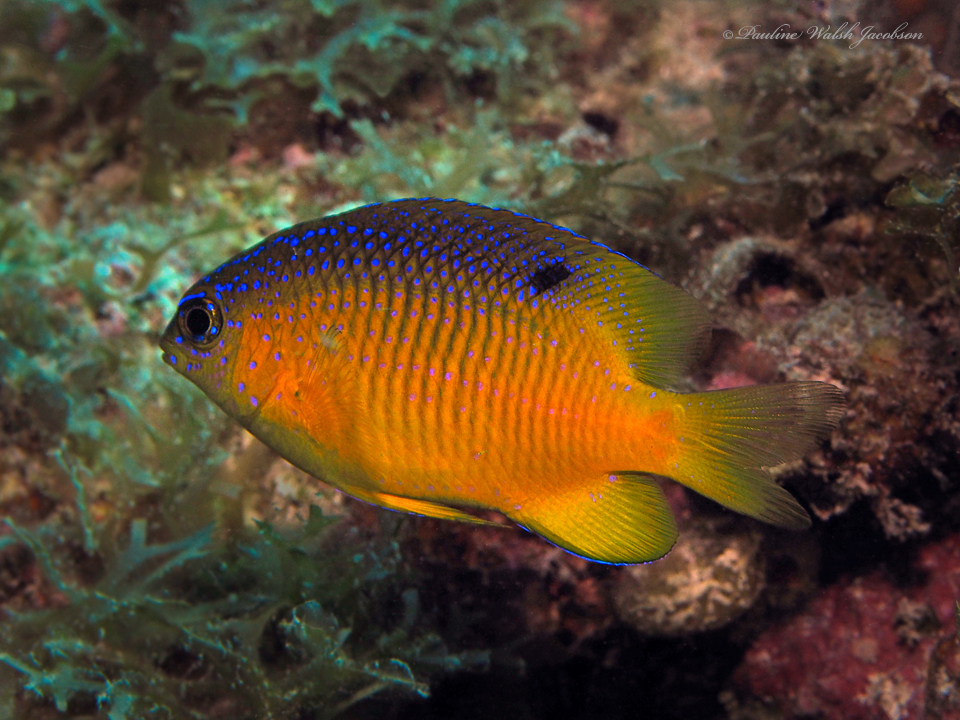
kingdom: Animalia
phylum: Chordata
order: Perciformes
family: Pomacentridae
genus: Stegastes
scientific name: Stegastes leucostictus
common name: Beaugregory
